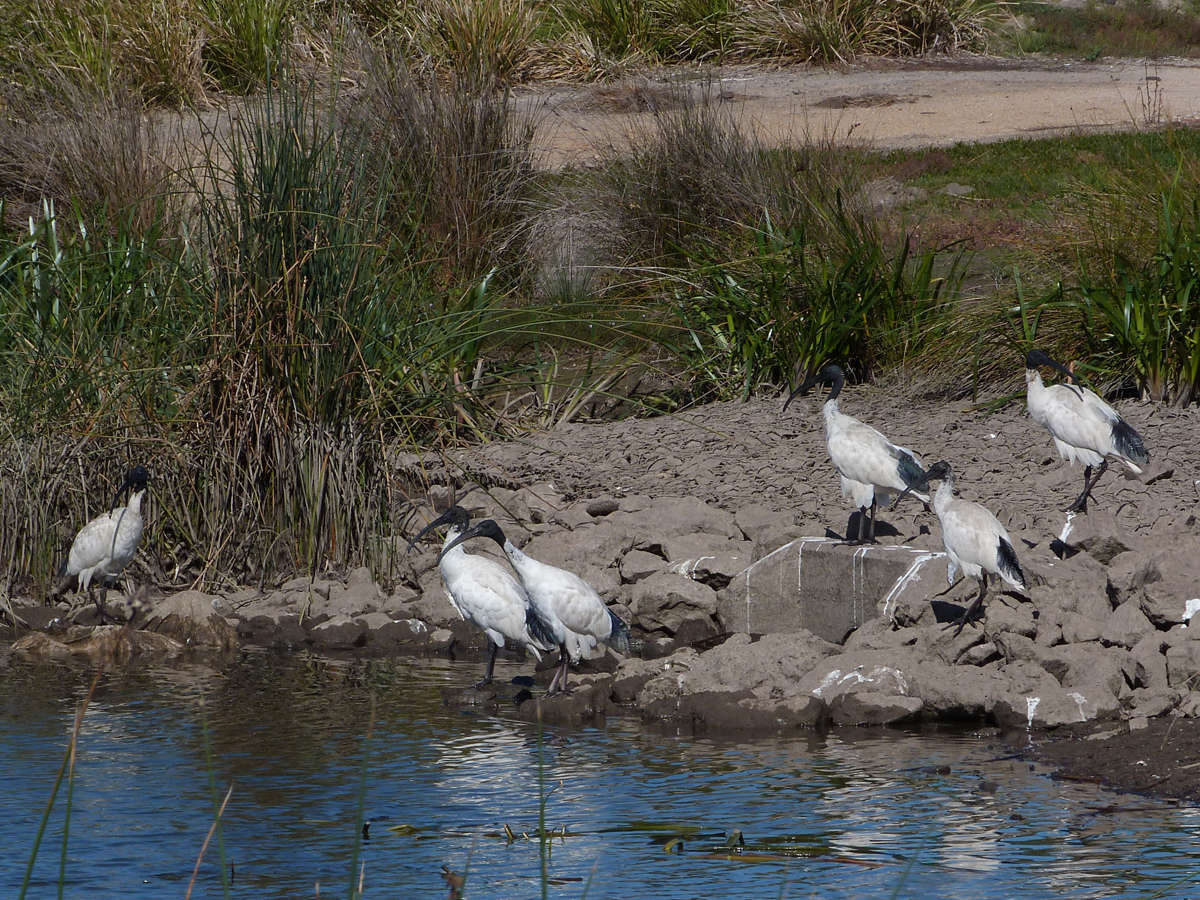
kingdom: Animalia
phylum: Chordata
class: Aves
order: Pelecaniformes
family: Threskiornithidae
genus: Threskiornis
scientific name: Threskiornis molucca
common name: Australian white ibis
